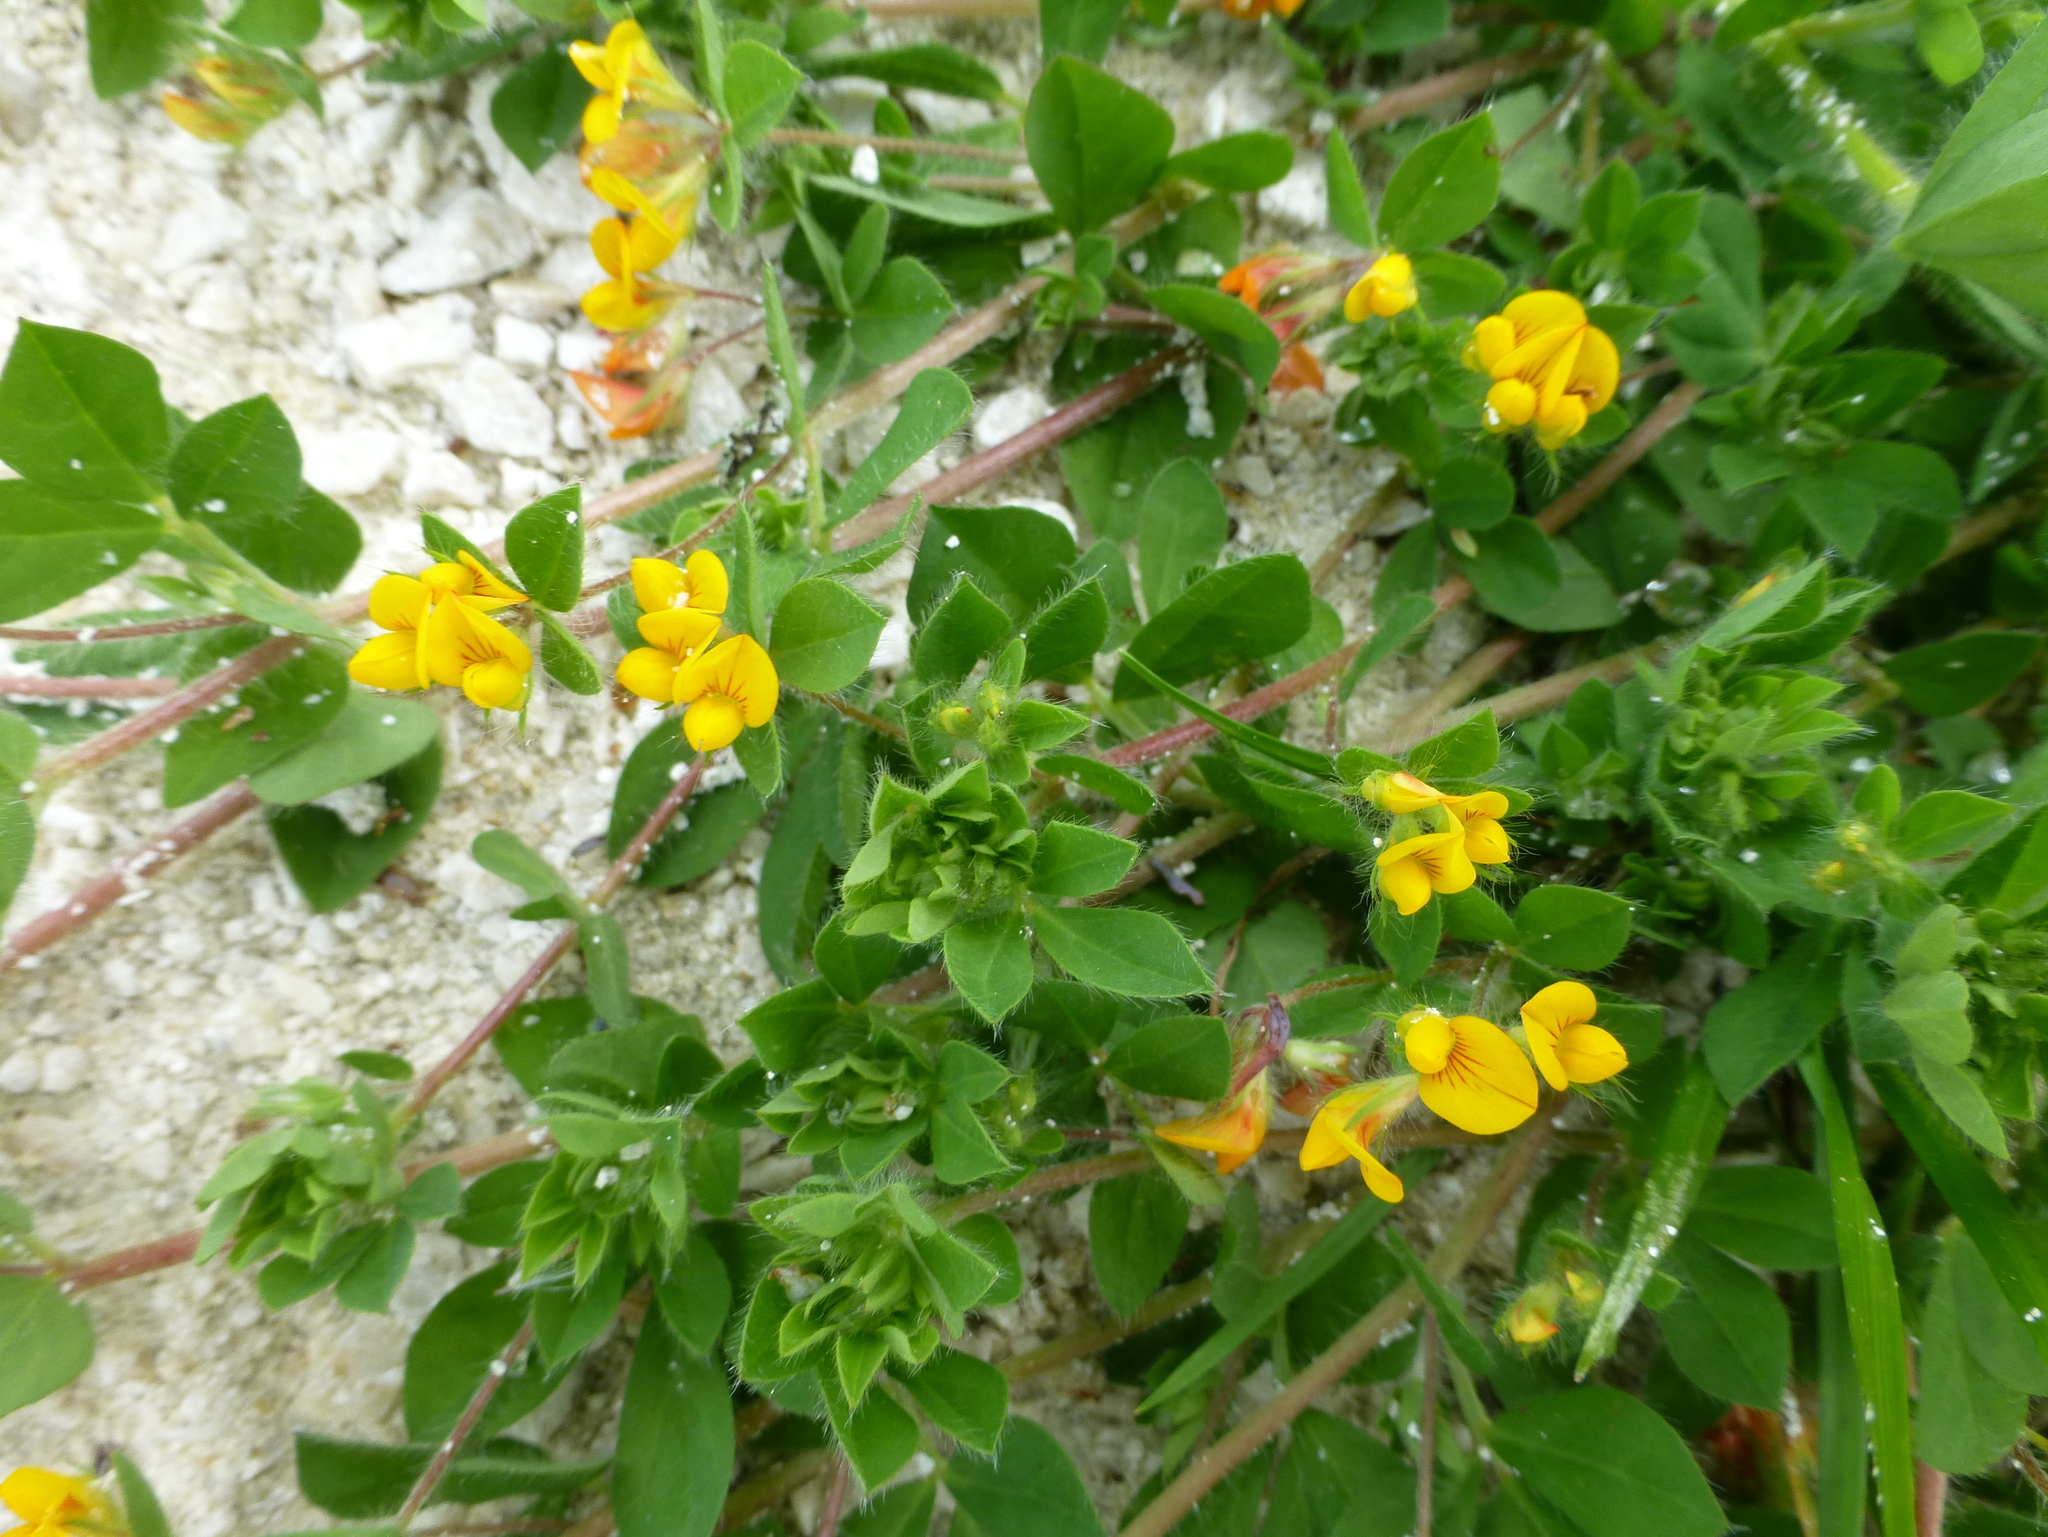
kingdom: Plantae
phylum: Tracheophyta
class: Magnoliopsida
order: Fabales
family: Fabaceae
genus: Lotus
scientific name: Lotus subbiflorus
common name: Hairy bird's-foot trefoil
